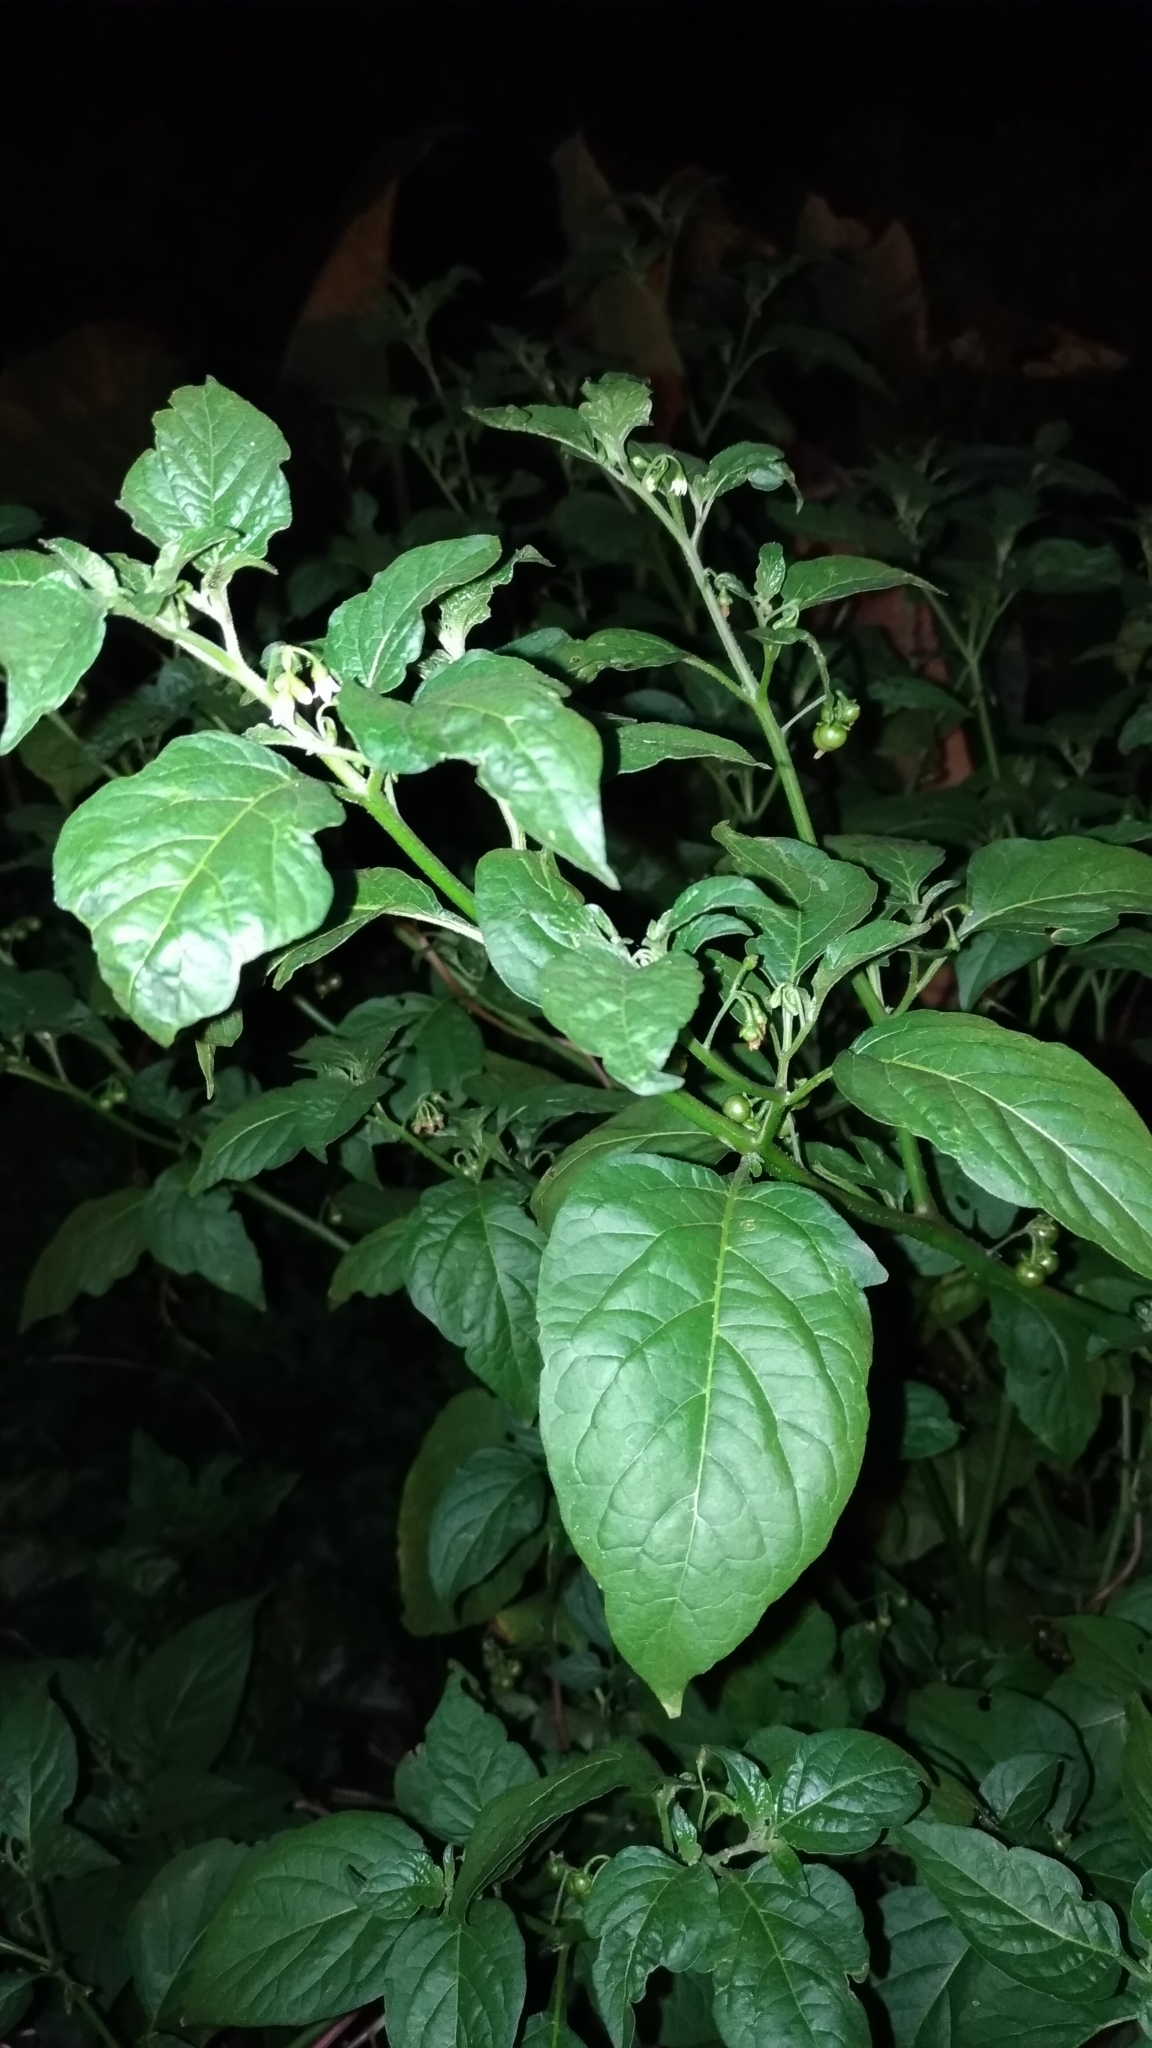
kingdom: Plantae
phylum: Tracheophyta
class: Magnoliopsida
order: Solanales
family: Solanaceae
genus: Solanum
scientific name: Solanum nigrum
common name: Black nightshade
